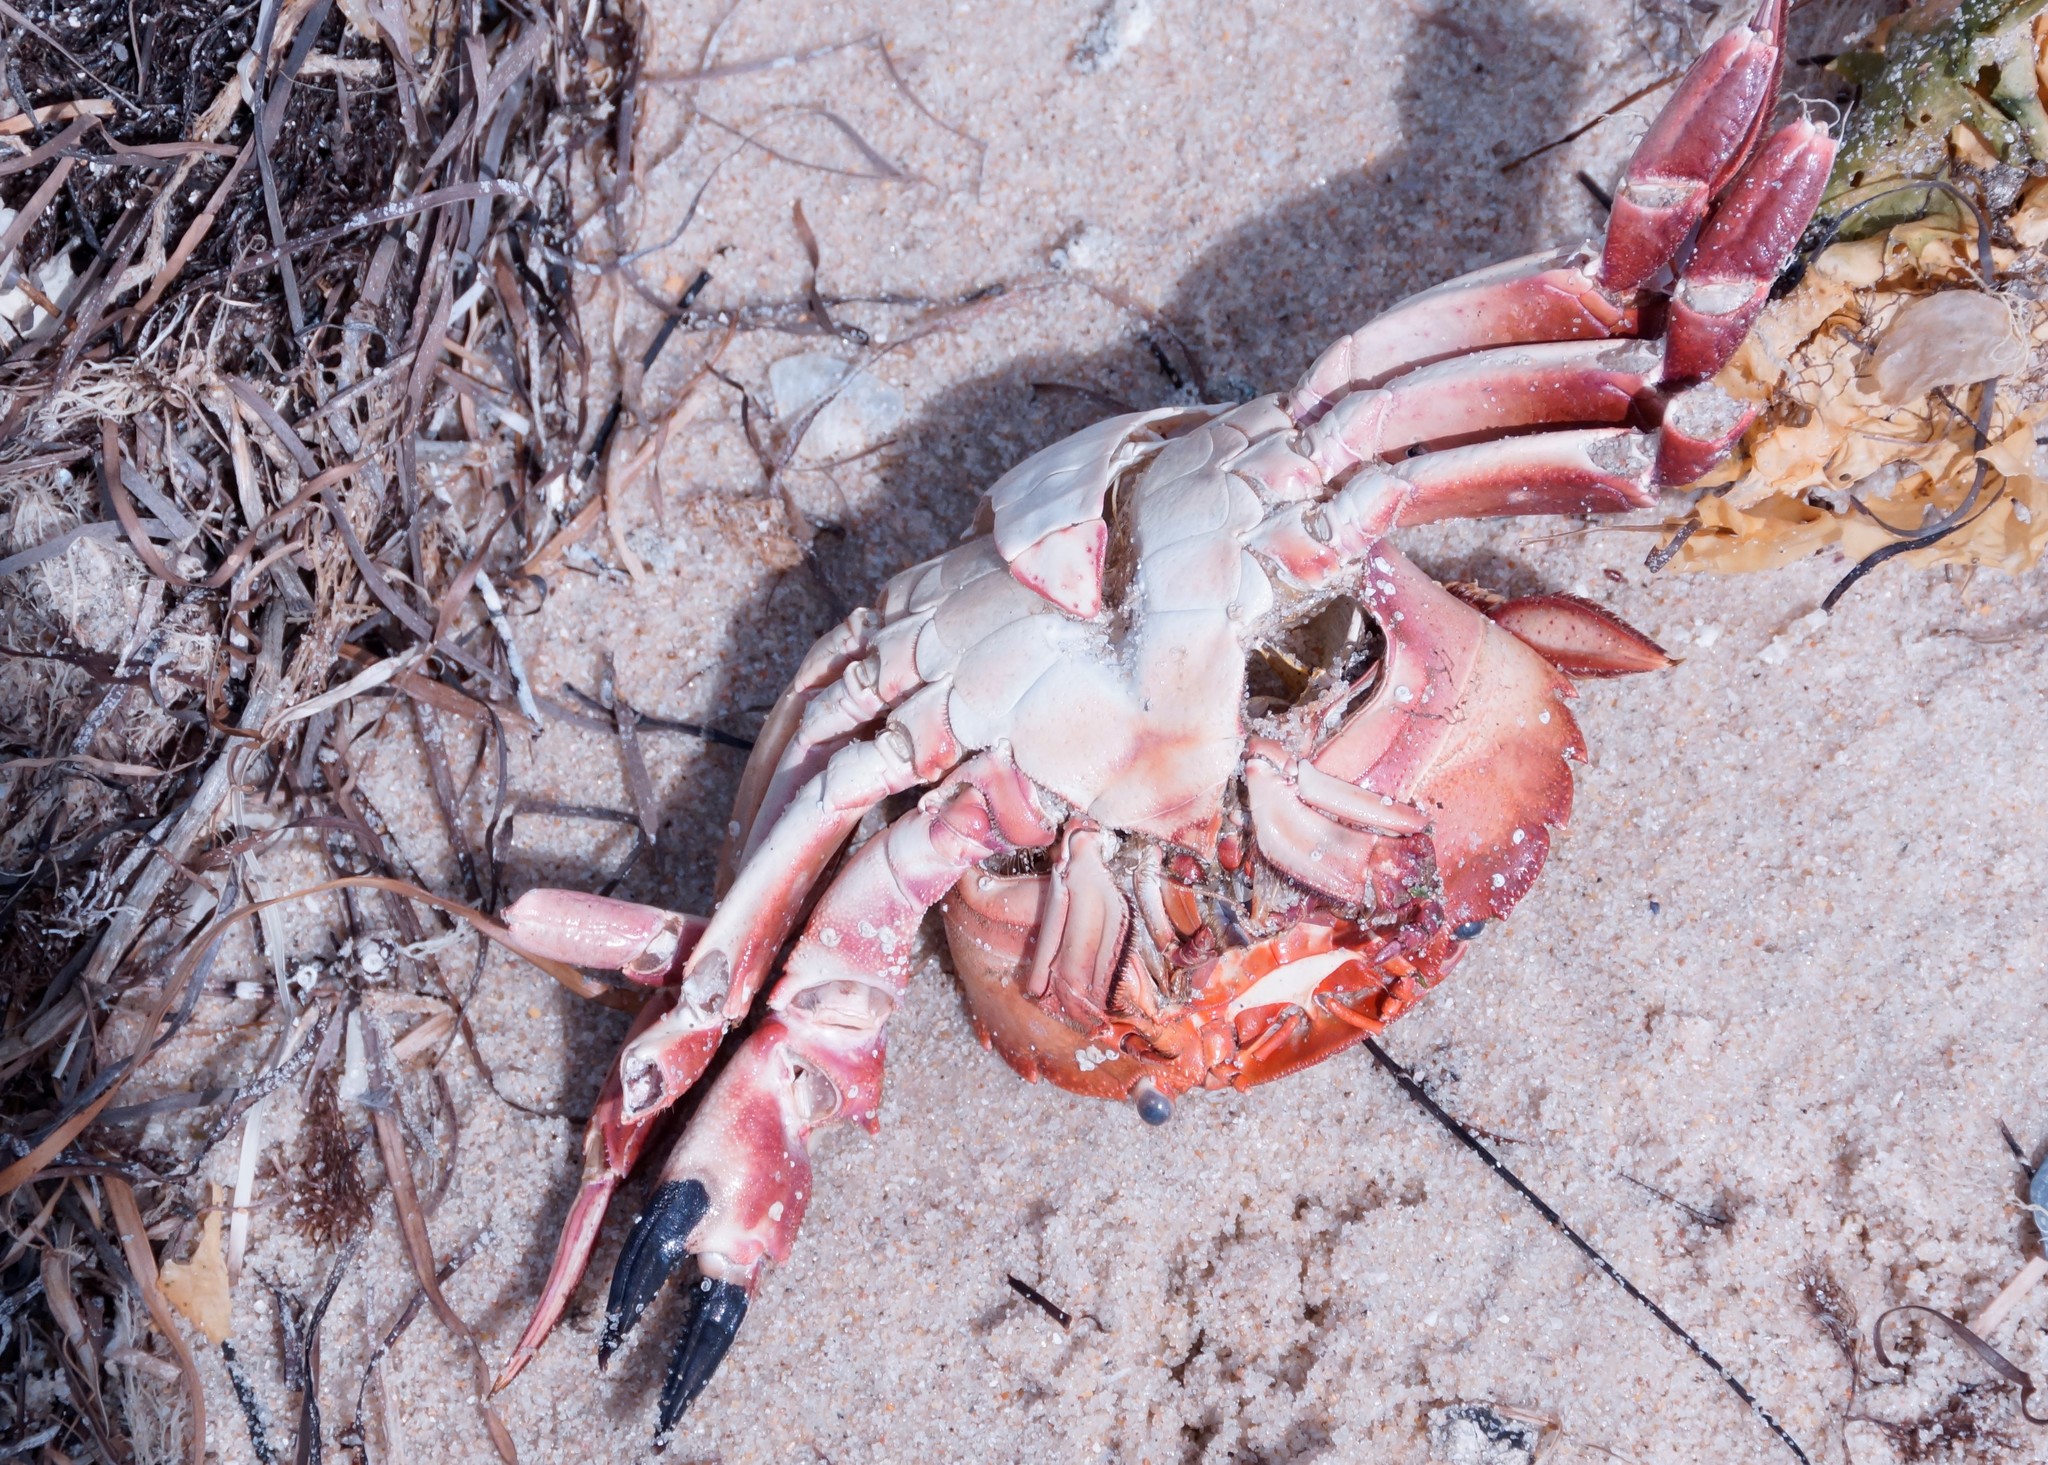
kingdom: Animalia
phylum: Arthropoda
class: Malacostraca
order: Decapoda
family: Geryonidae
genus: Nectocarcinus
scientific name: Nectocarcinus integrifrons
